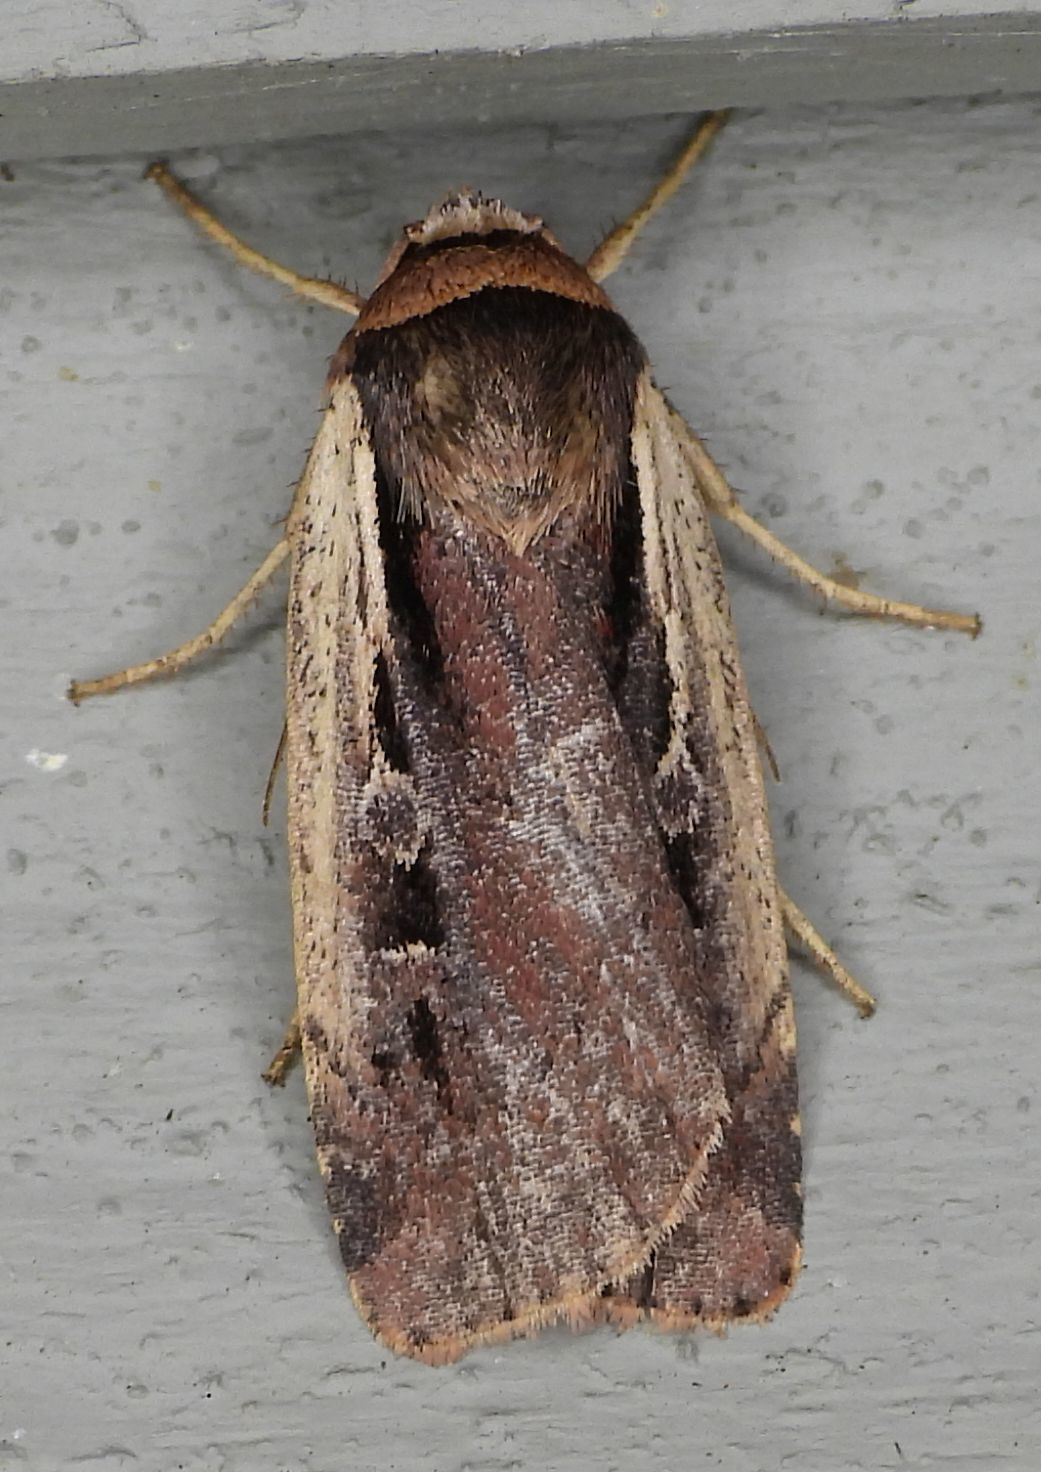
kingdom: Animalia
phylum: Arthropoda
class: Insecta
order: Lepidoptera
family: Noctuidae
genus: Ochropleura
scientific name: Ochropleura implecta
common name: Flame-shouldered dart
